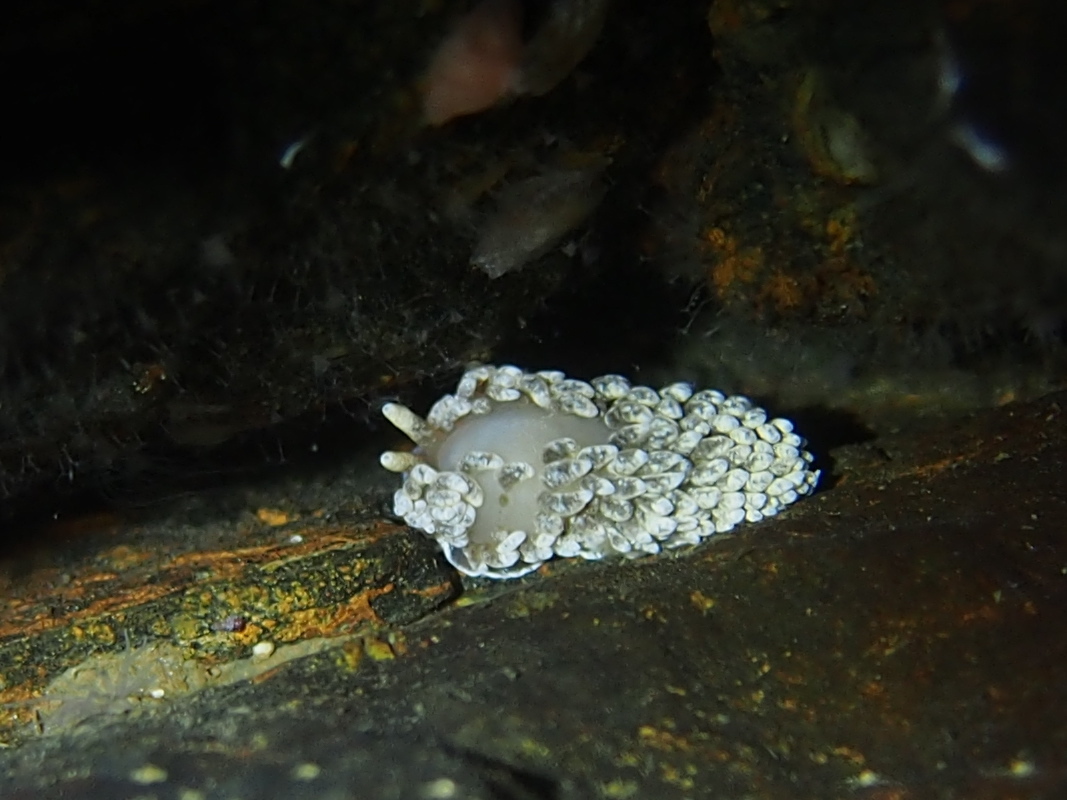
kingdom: Animalia
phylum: Mollusca
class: Gastropoda
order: Nudibranchia
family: Aeolidiidae
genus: Aeolidiella
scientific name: Aeolidiella glauca
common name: Orange-brown aeolid
